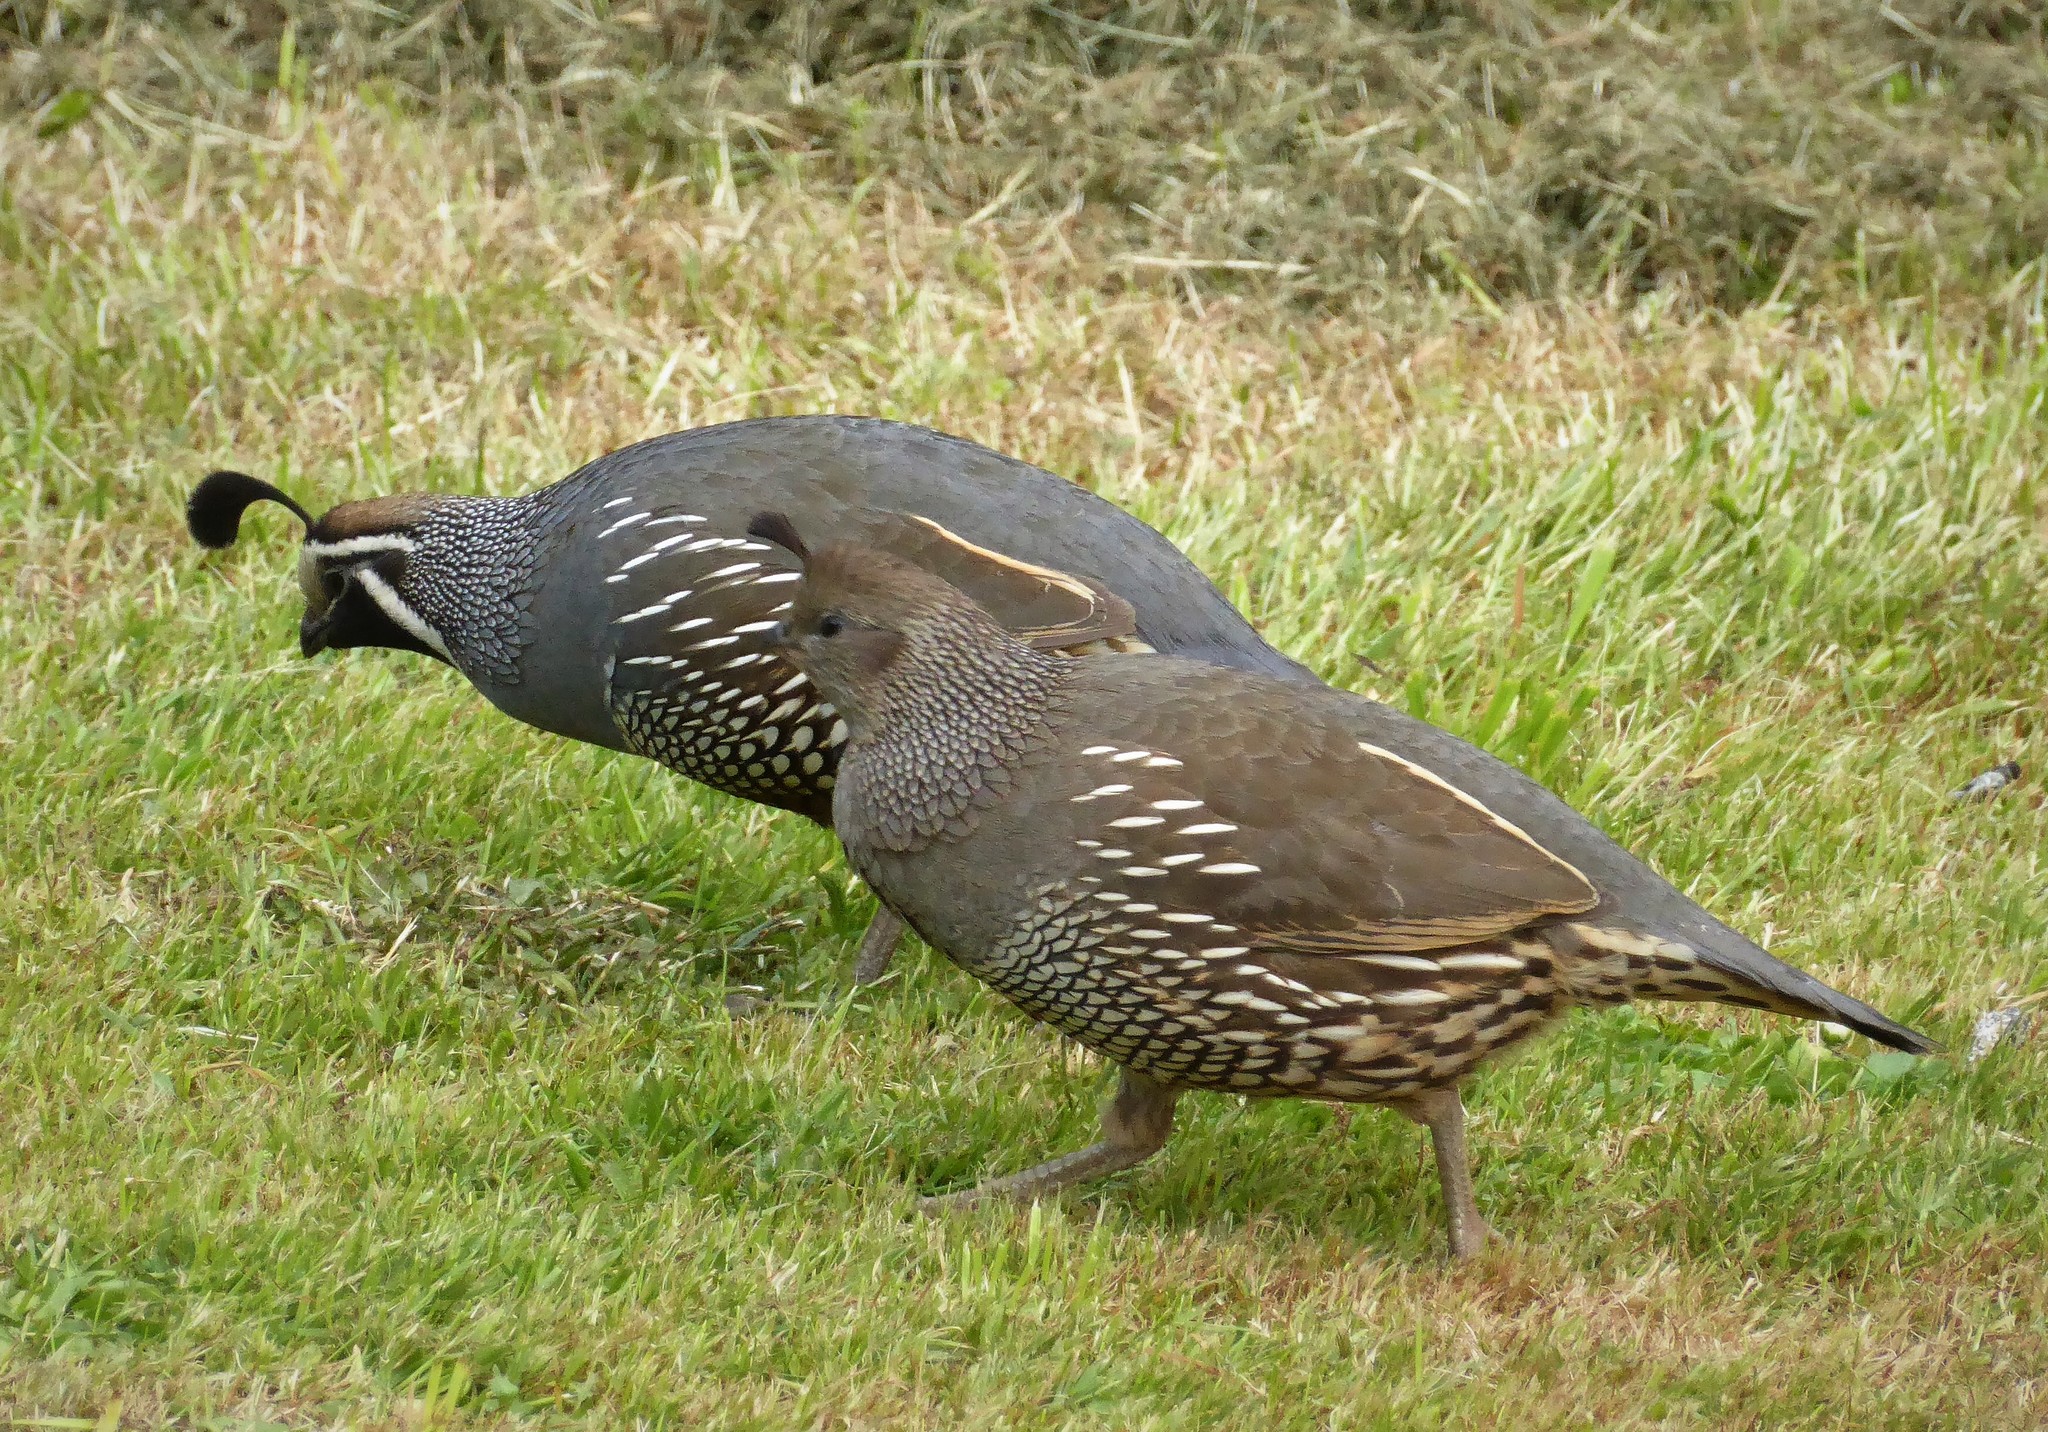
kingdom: Animalia
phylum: Chordata
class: Aves
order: Galliformes
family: Odontophoridae
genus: Callipepla
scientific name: Callipepla californica
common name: California quail
